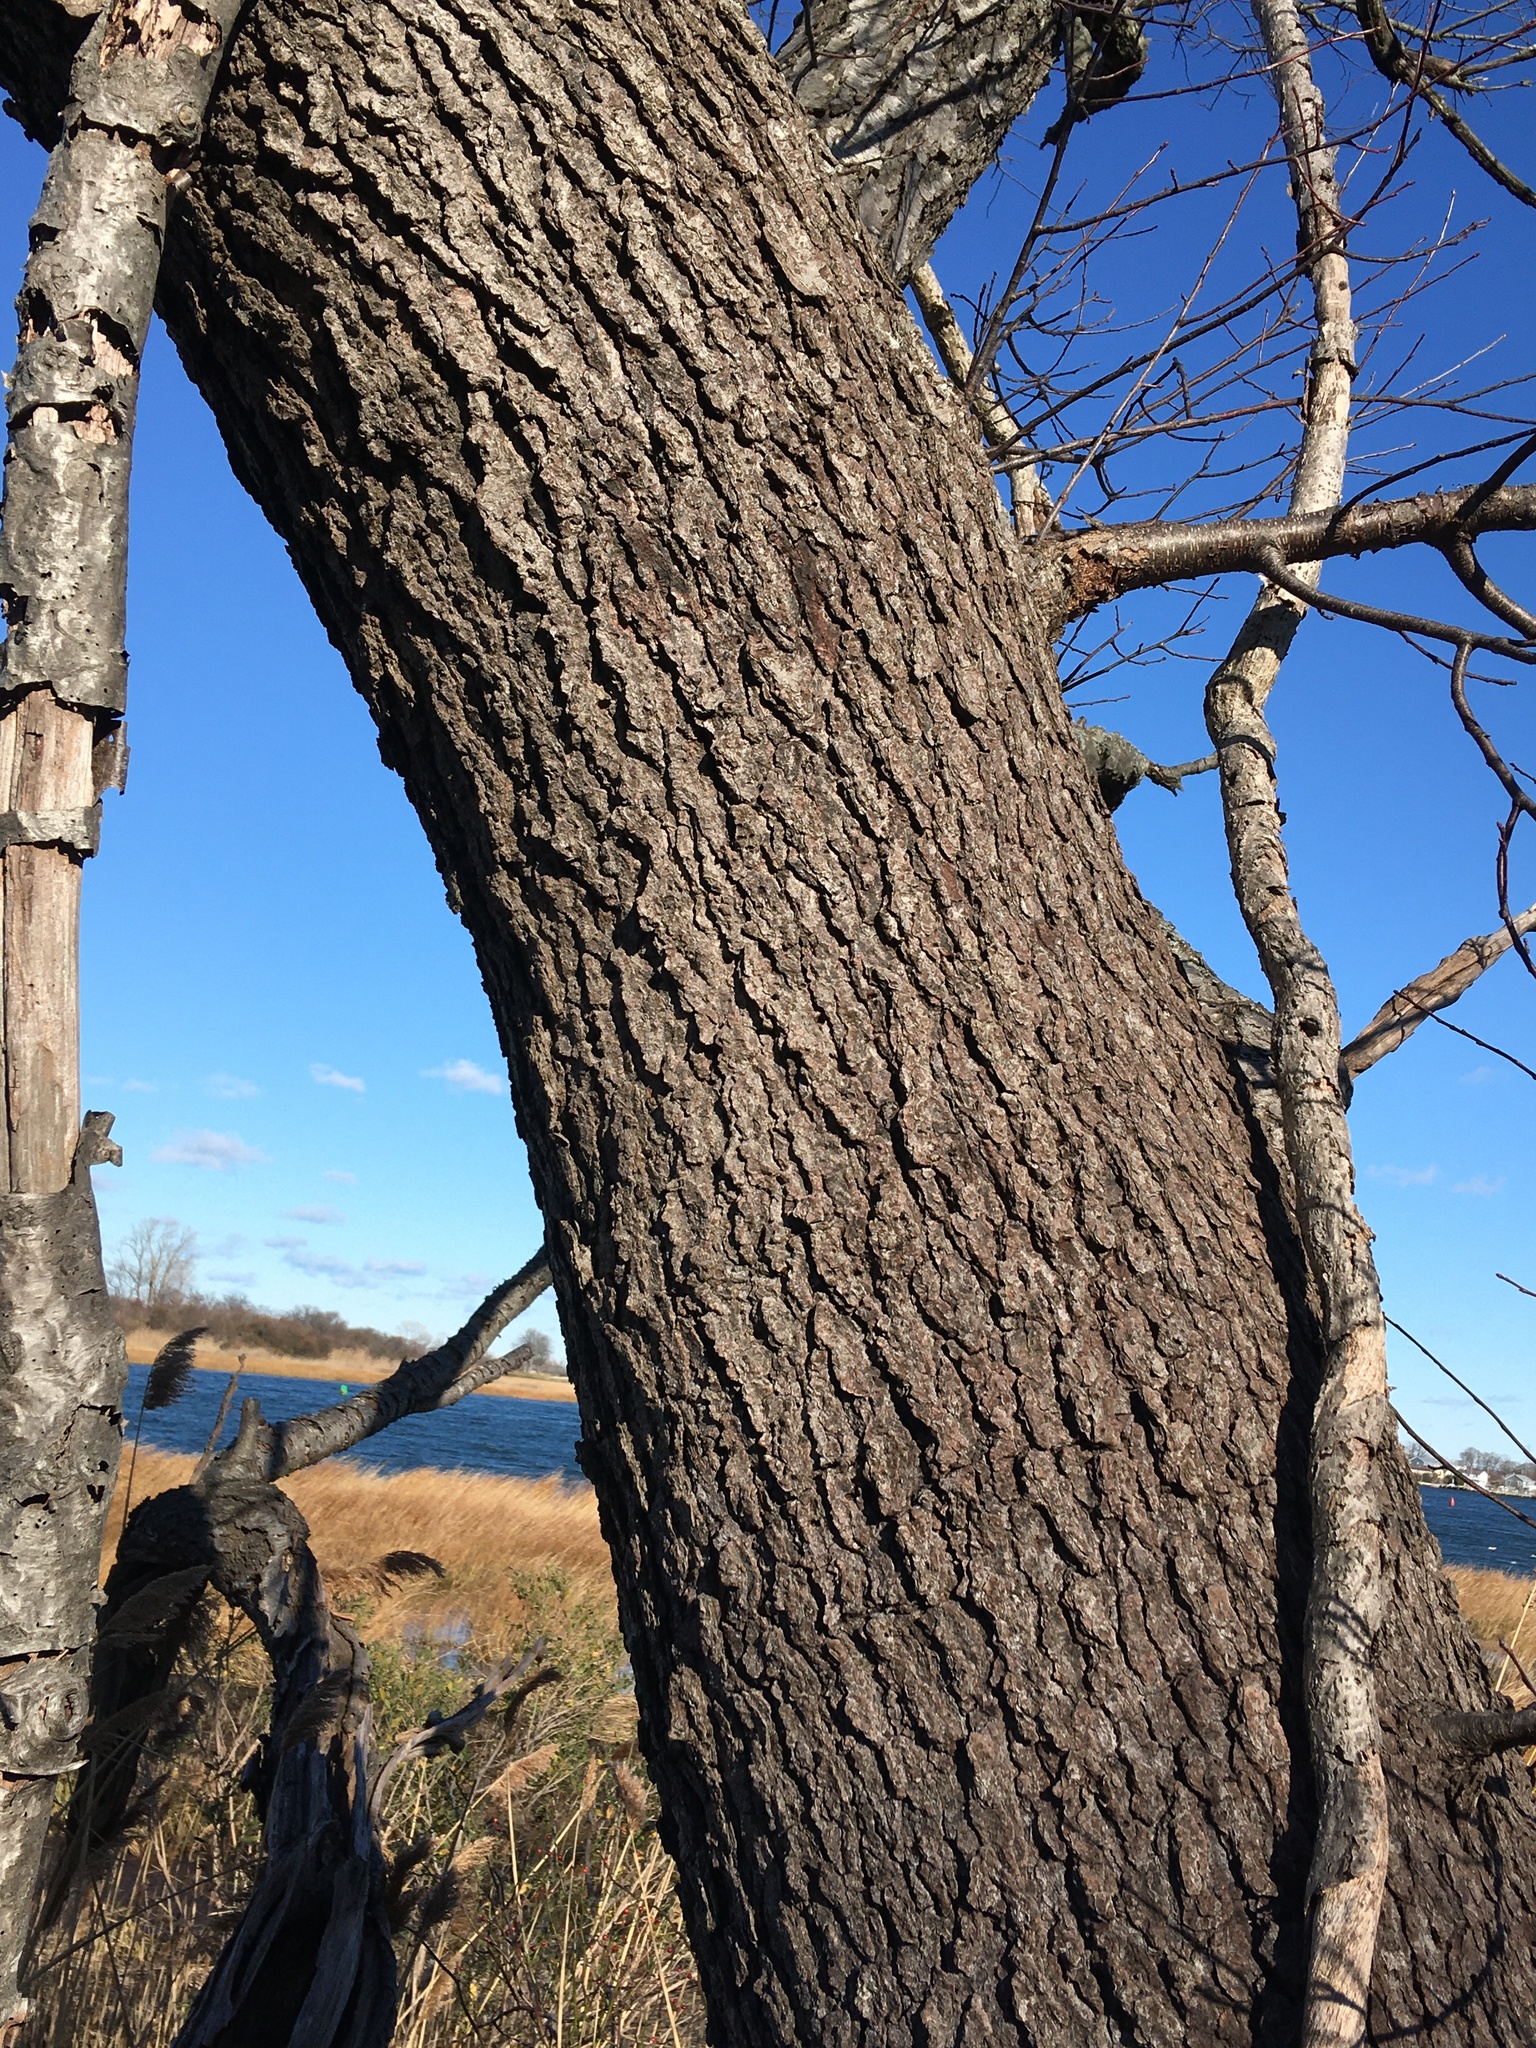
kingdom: Plantae
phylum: Tracheophyta
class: Magnoliopsida
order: Rosales
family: Rosaceae
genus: Prunus
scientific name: Prunus serotina
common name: Black cherry
